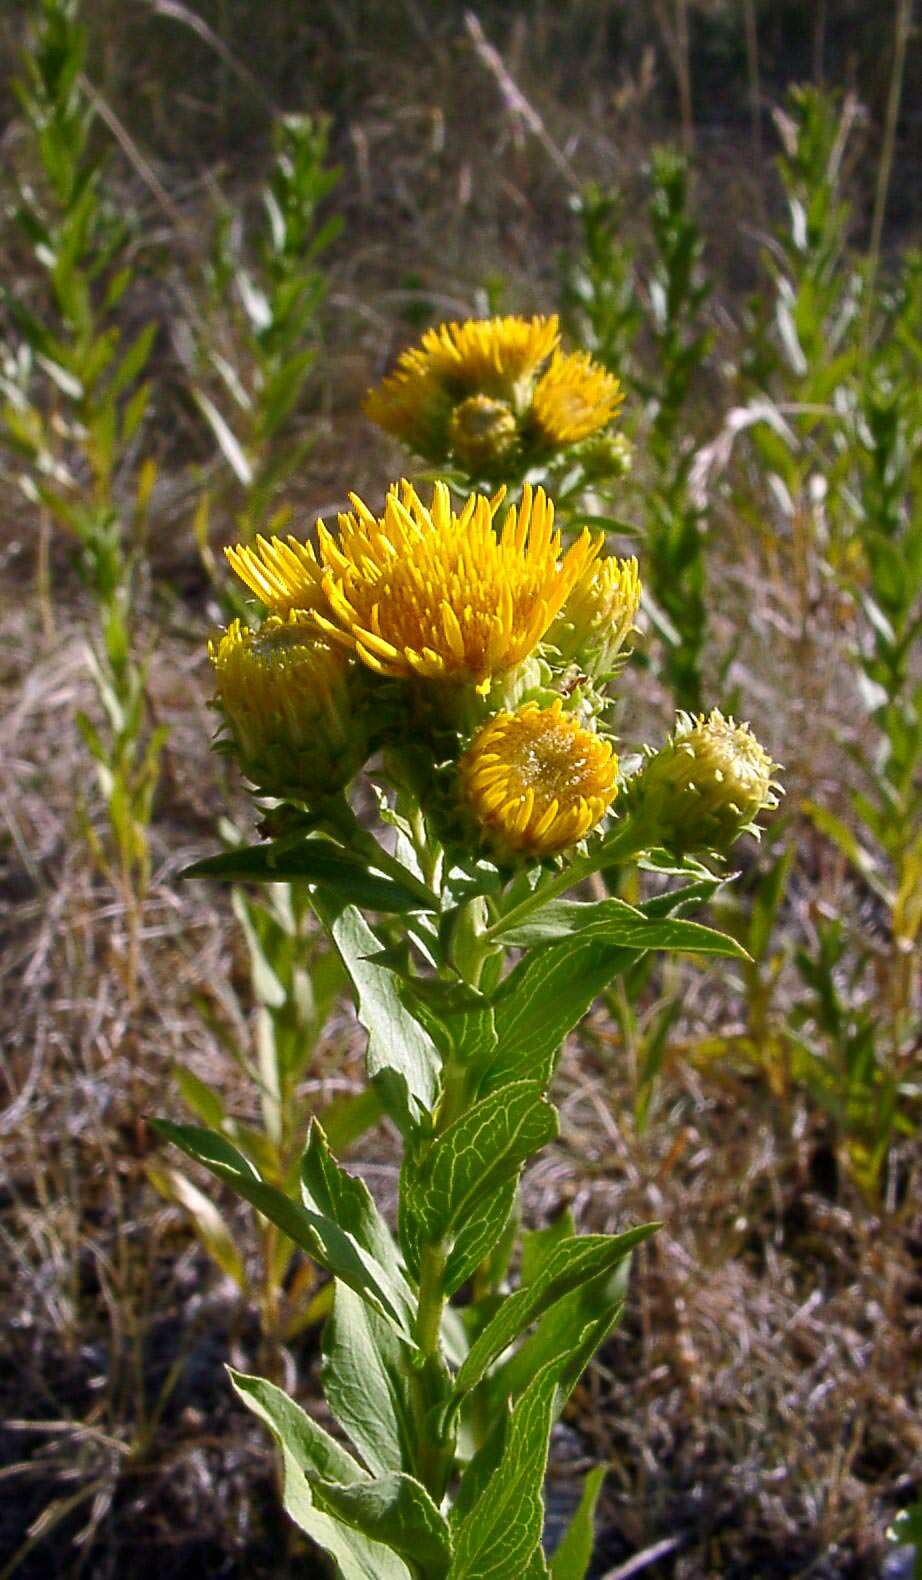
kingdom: Plantae
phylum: Tracheophyta
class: Magnoliopsida
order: Asterales
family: Asteraceae
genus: Pentanema
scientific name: Pentanema spiraeifolium
